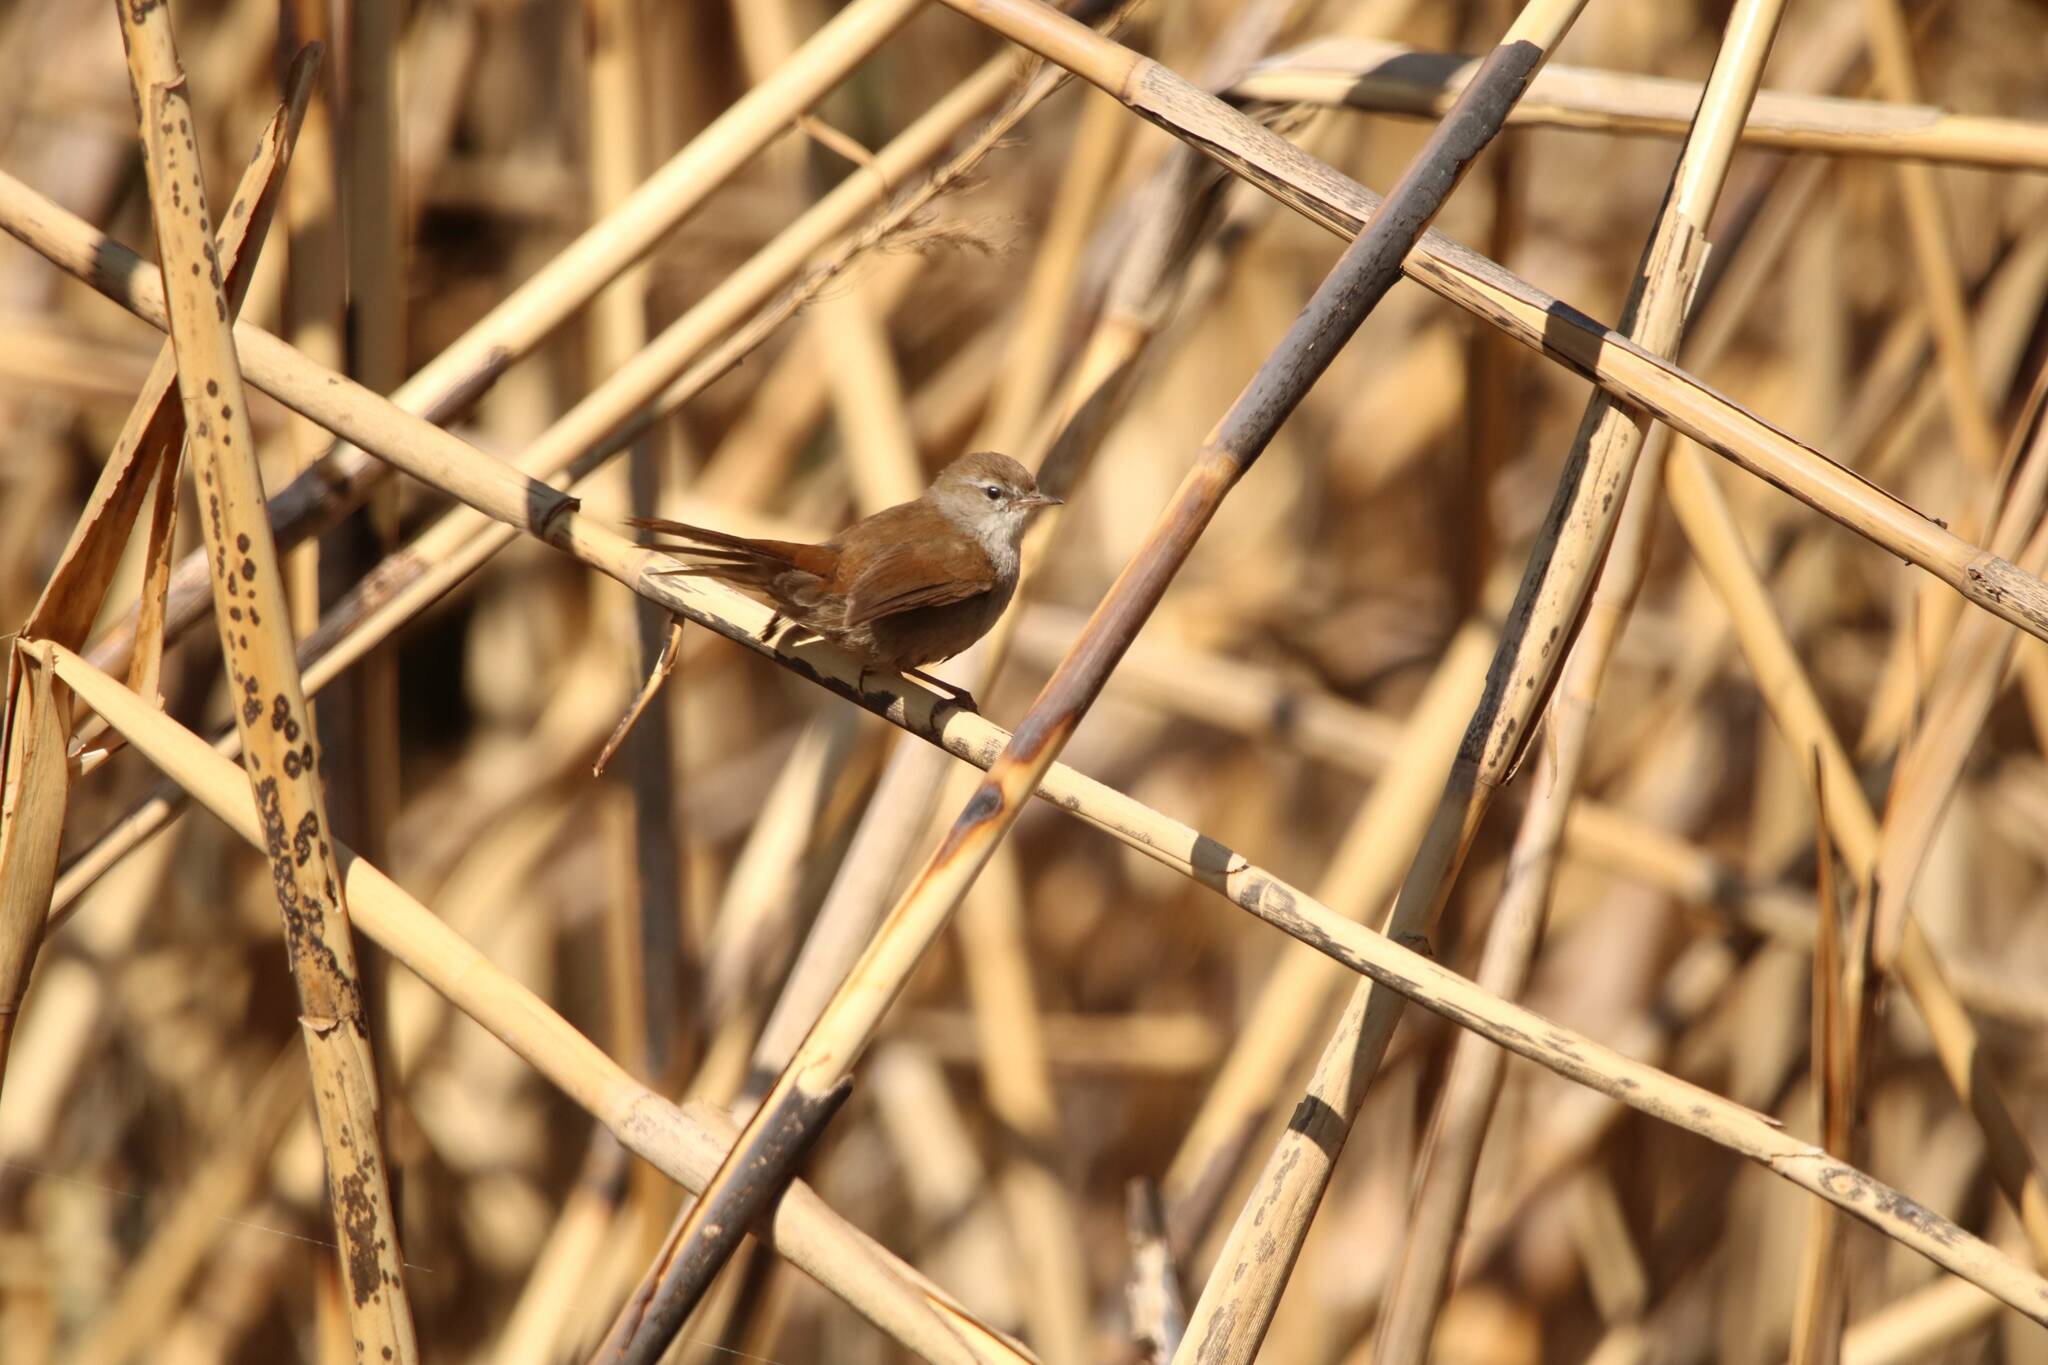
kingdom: Animalia
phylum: Chordata
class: Aves
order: Passeriformes
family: Cettiidae
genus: Cettia
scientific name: Cettia cetti
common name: Cetti's warbler
